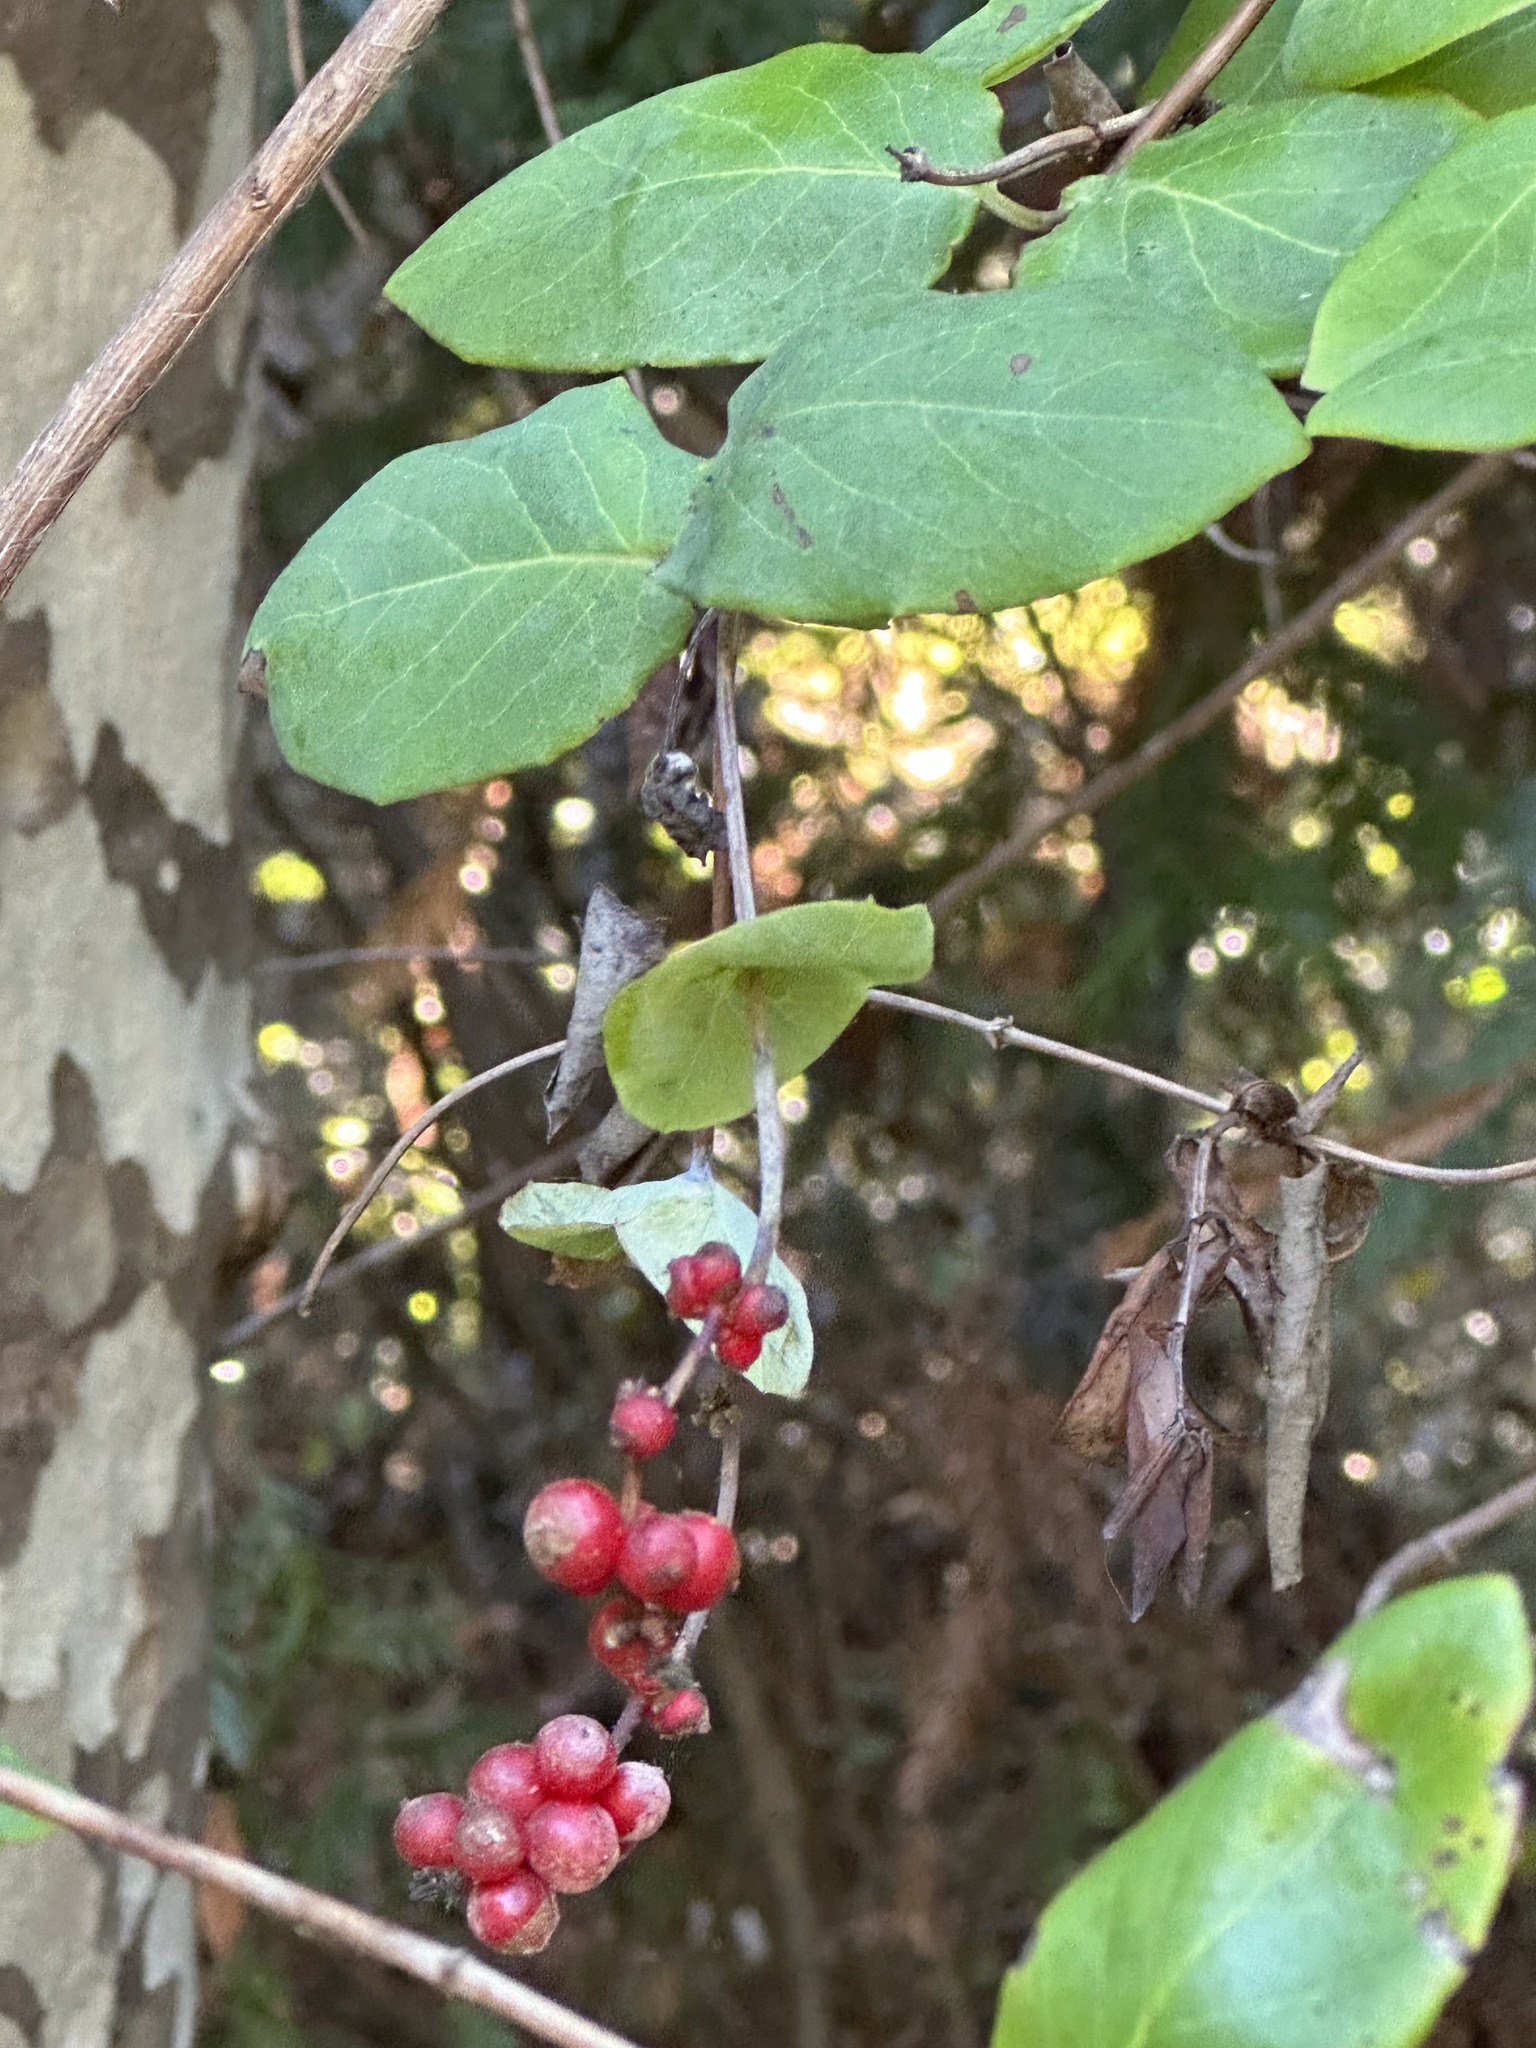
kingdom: Plantae
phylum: Tracheophyta
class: Magnoliopsida
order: Dipsacales
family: Caprifoliaceae
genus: Lonicera
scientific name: Lonicera hispidula
